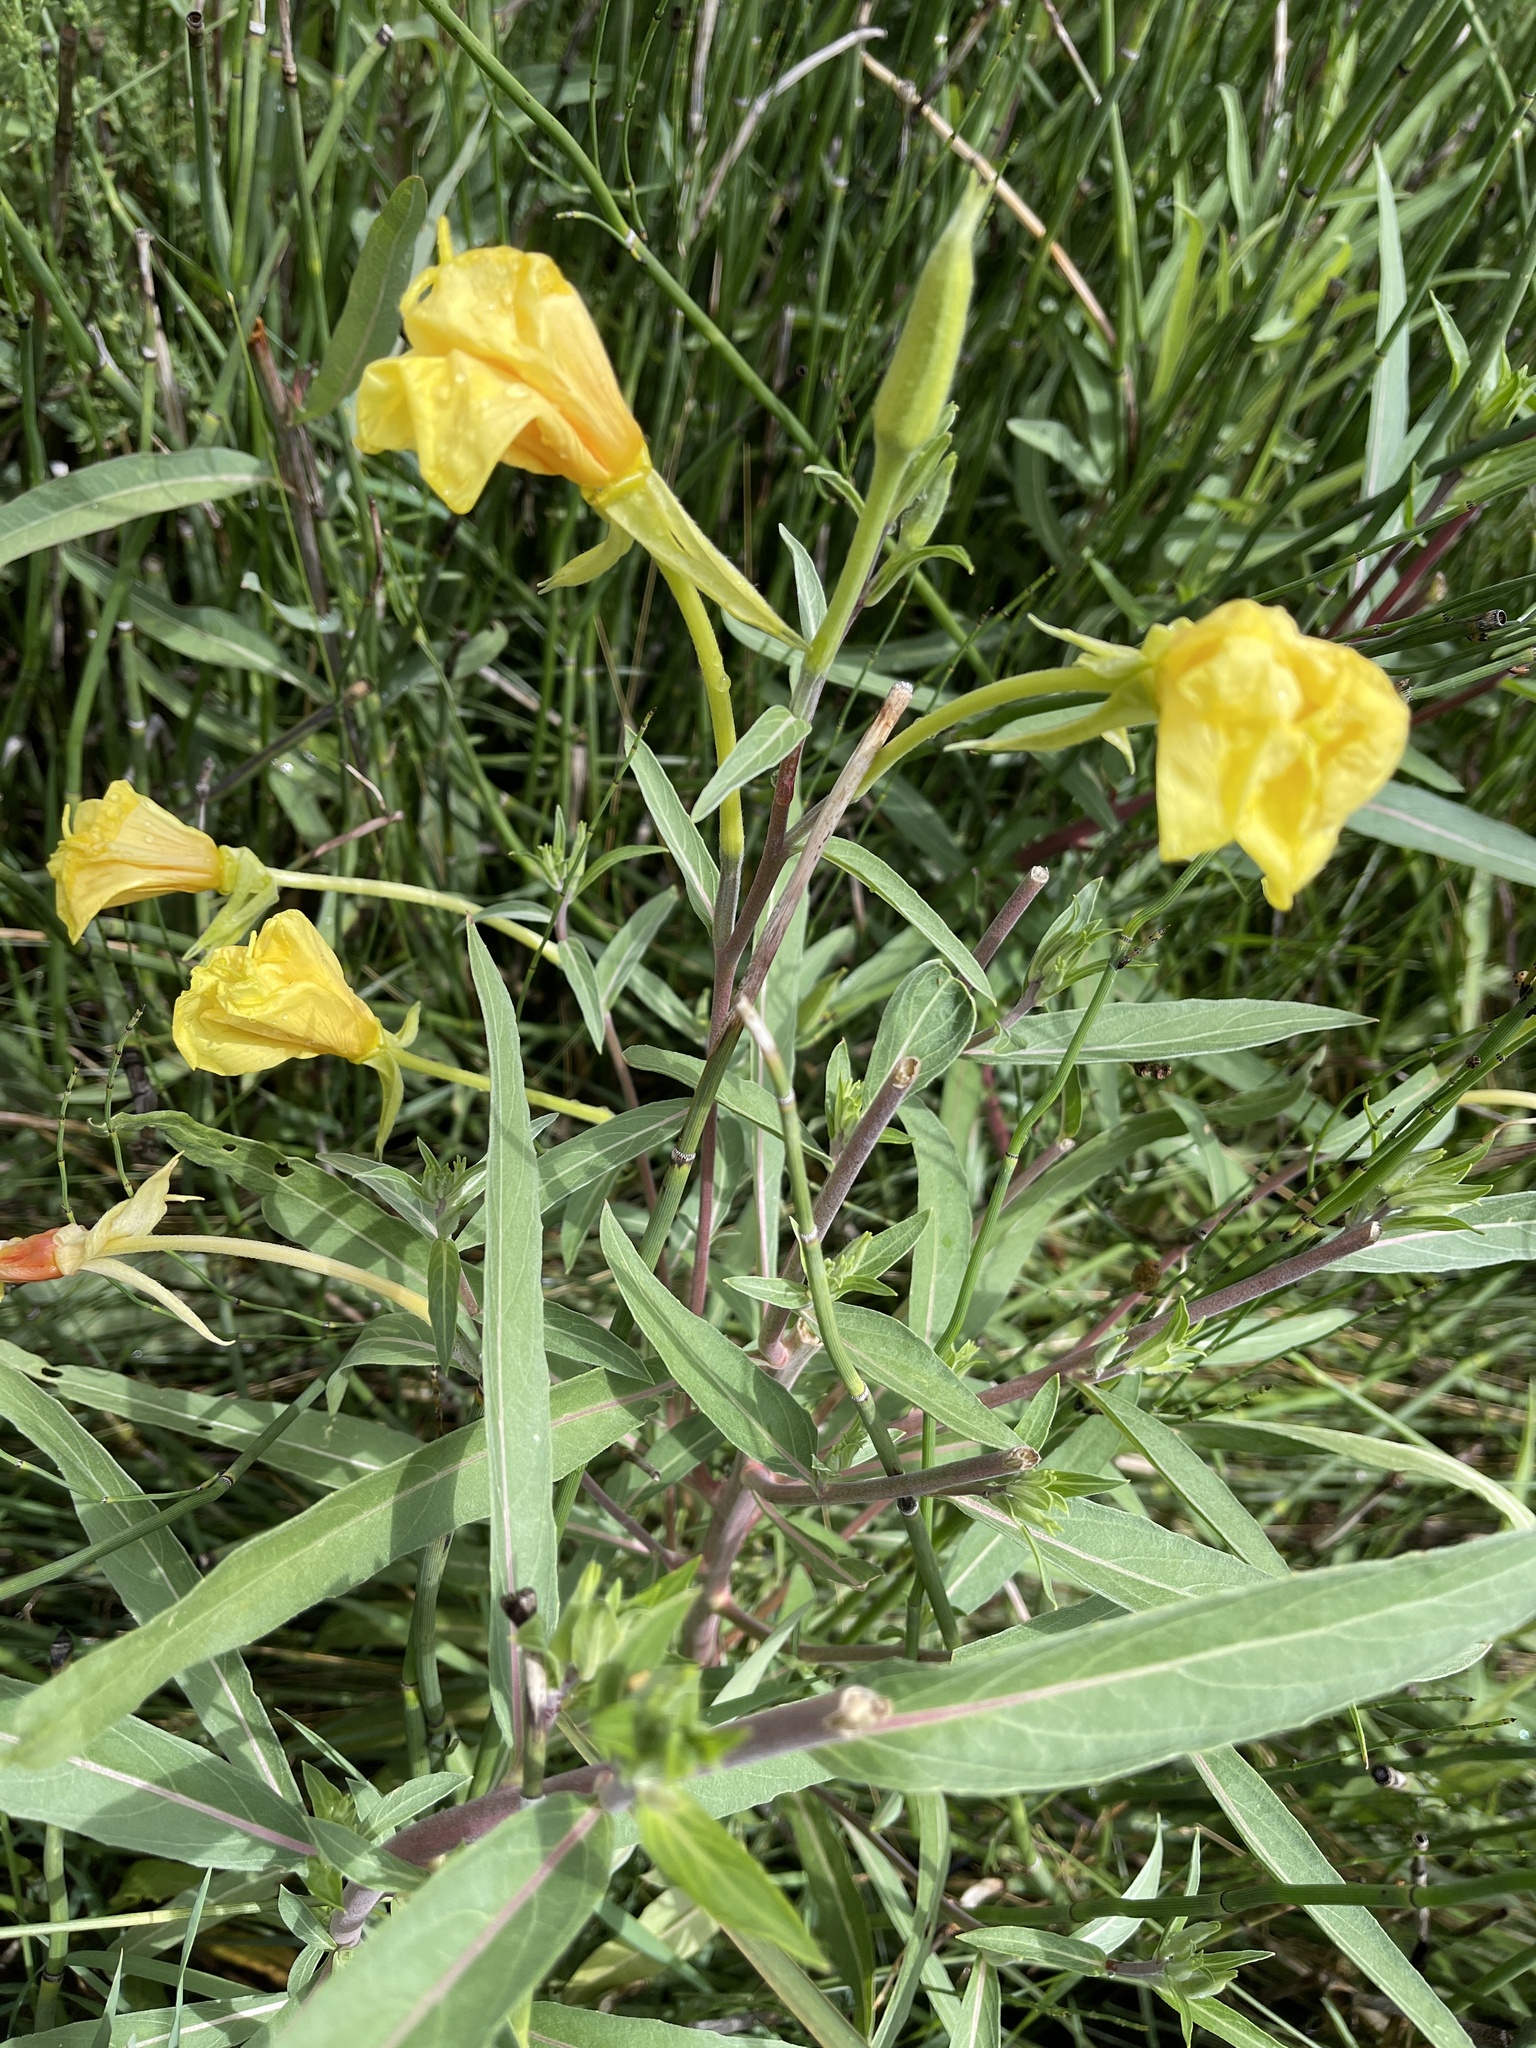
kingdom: Plantae
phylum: Tracheophyta
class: Magnoliopsida
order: Myrtales
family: Onagraceae
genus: Oenothera
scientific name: Oenothera longissima
